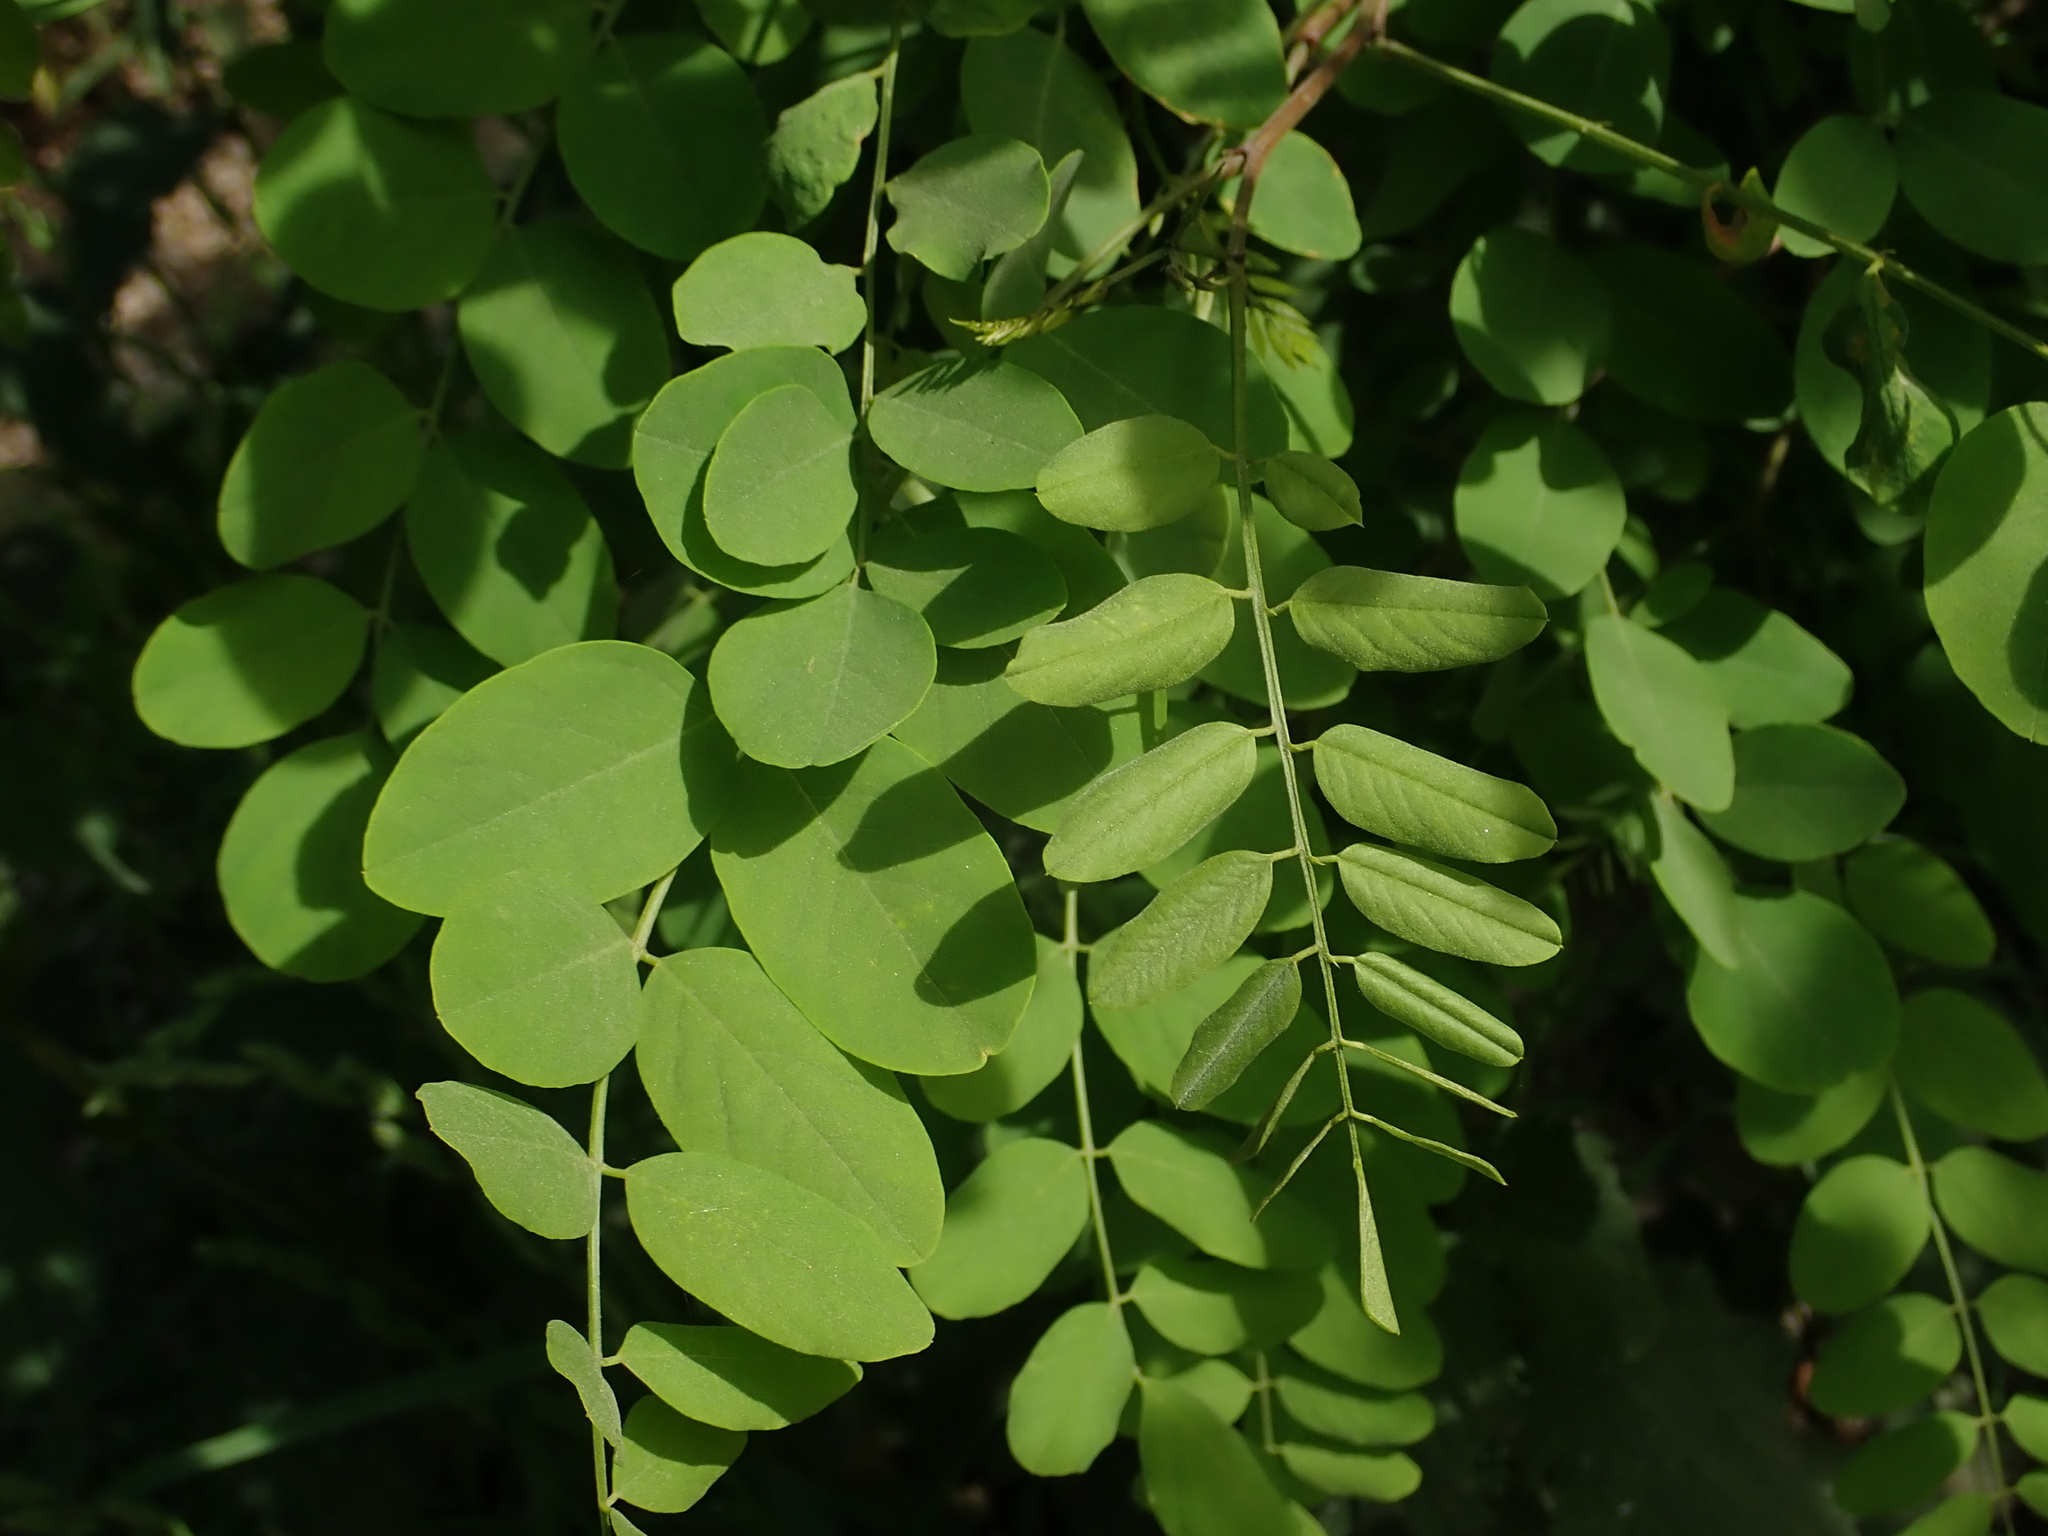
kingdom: Plantae
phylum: Tracheophyta
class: Magnoliopsida
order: Fabales
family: Fabaceae
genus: Robinia
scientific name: Robinia pseudoacacia
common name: Black locust
